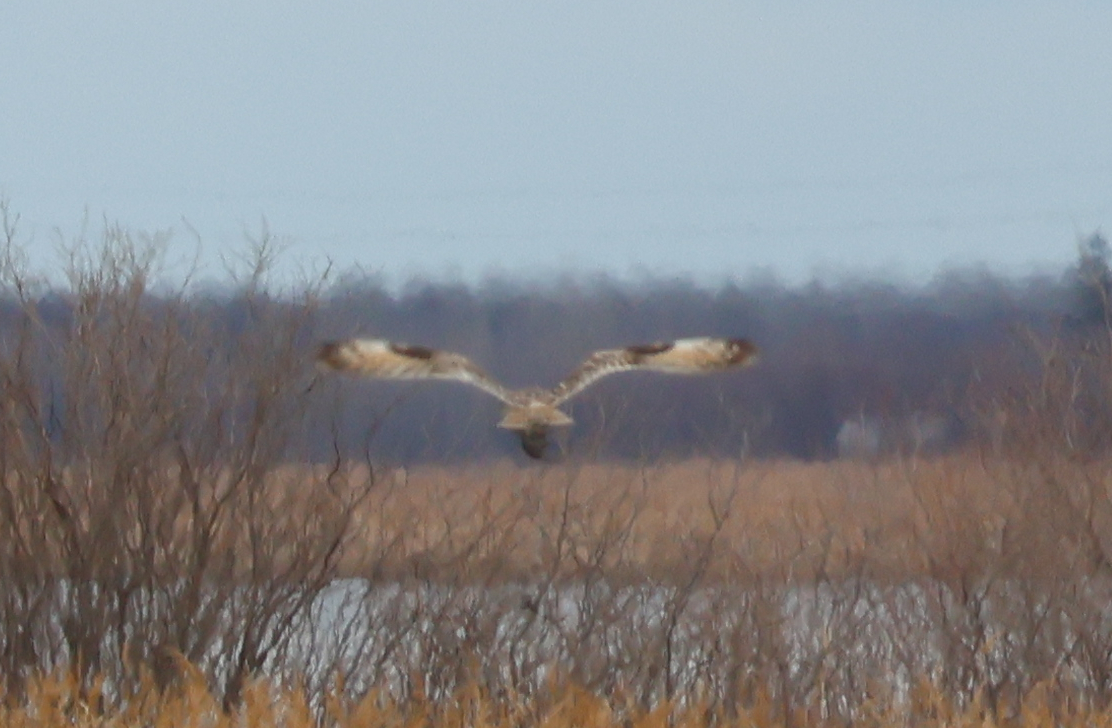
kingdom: Animalia
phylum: Chordata
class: Aves
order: Strigiformes
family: Strigidae
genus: Asio
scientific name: Asio flammeus
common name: Short-eared owl
